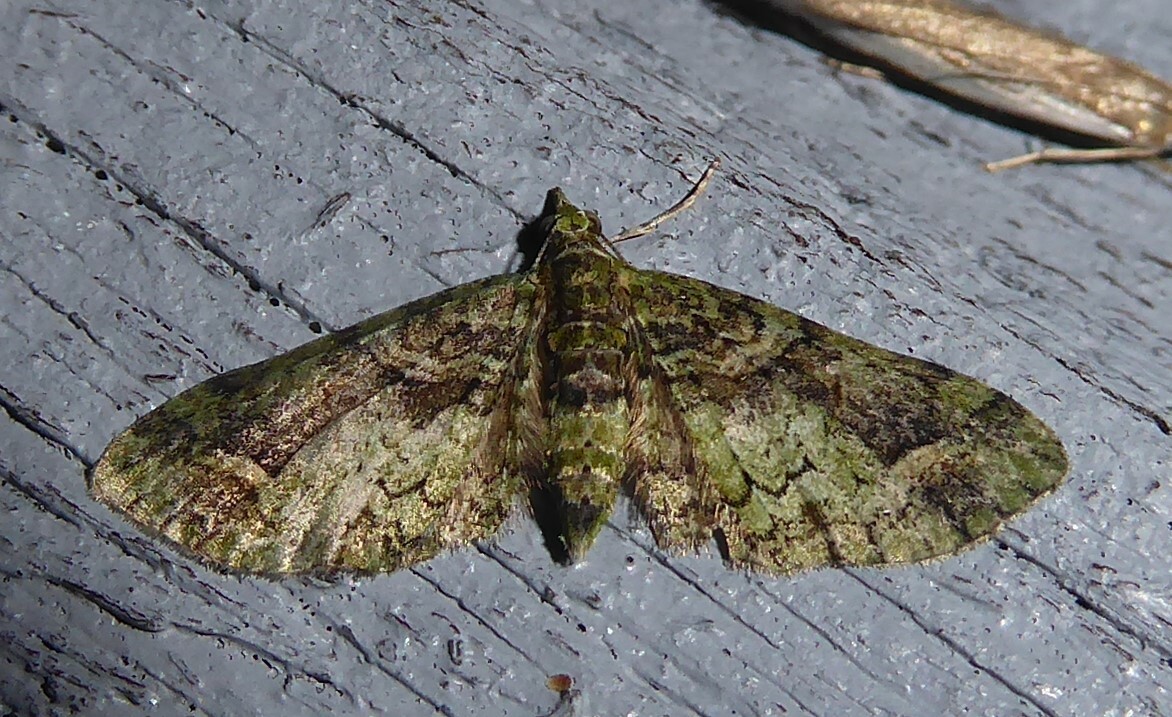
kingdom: Animalia
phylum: Arthropoda
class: Insecta
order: Lepidoptera
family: Geometridae
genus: Idaea
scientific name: Idaea mutanda
